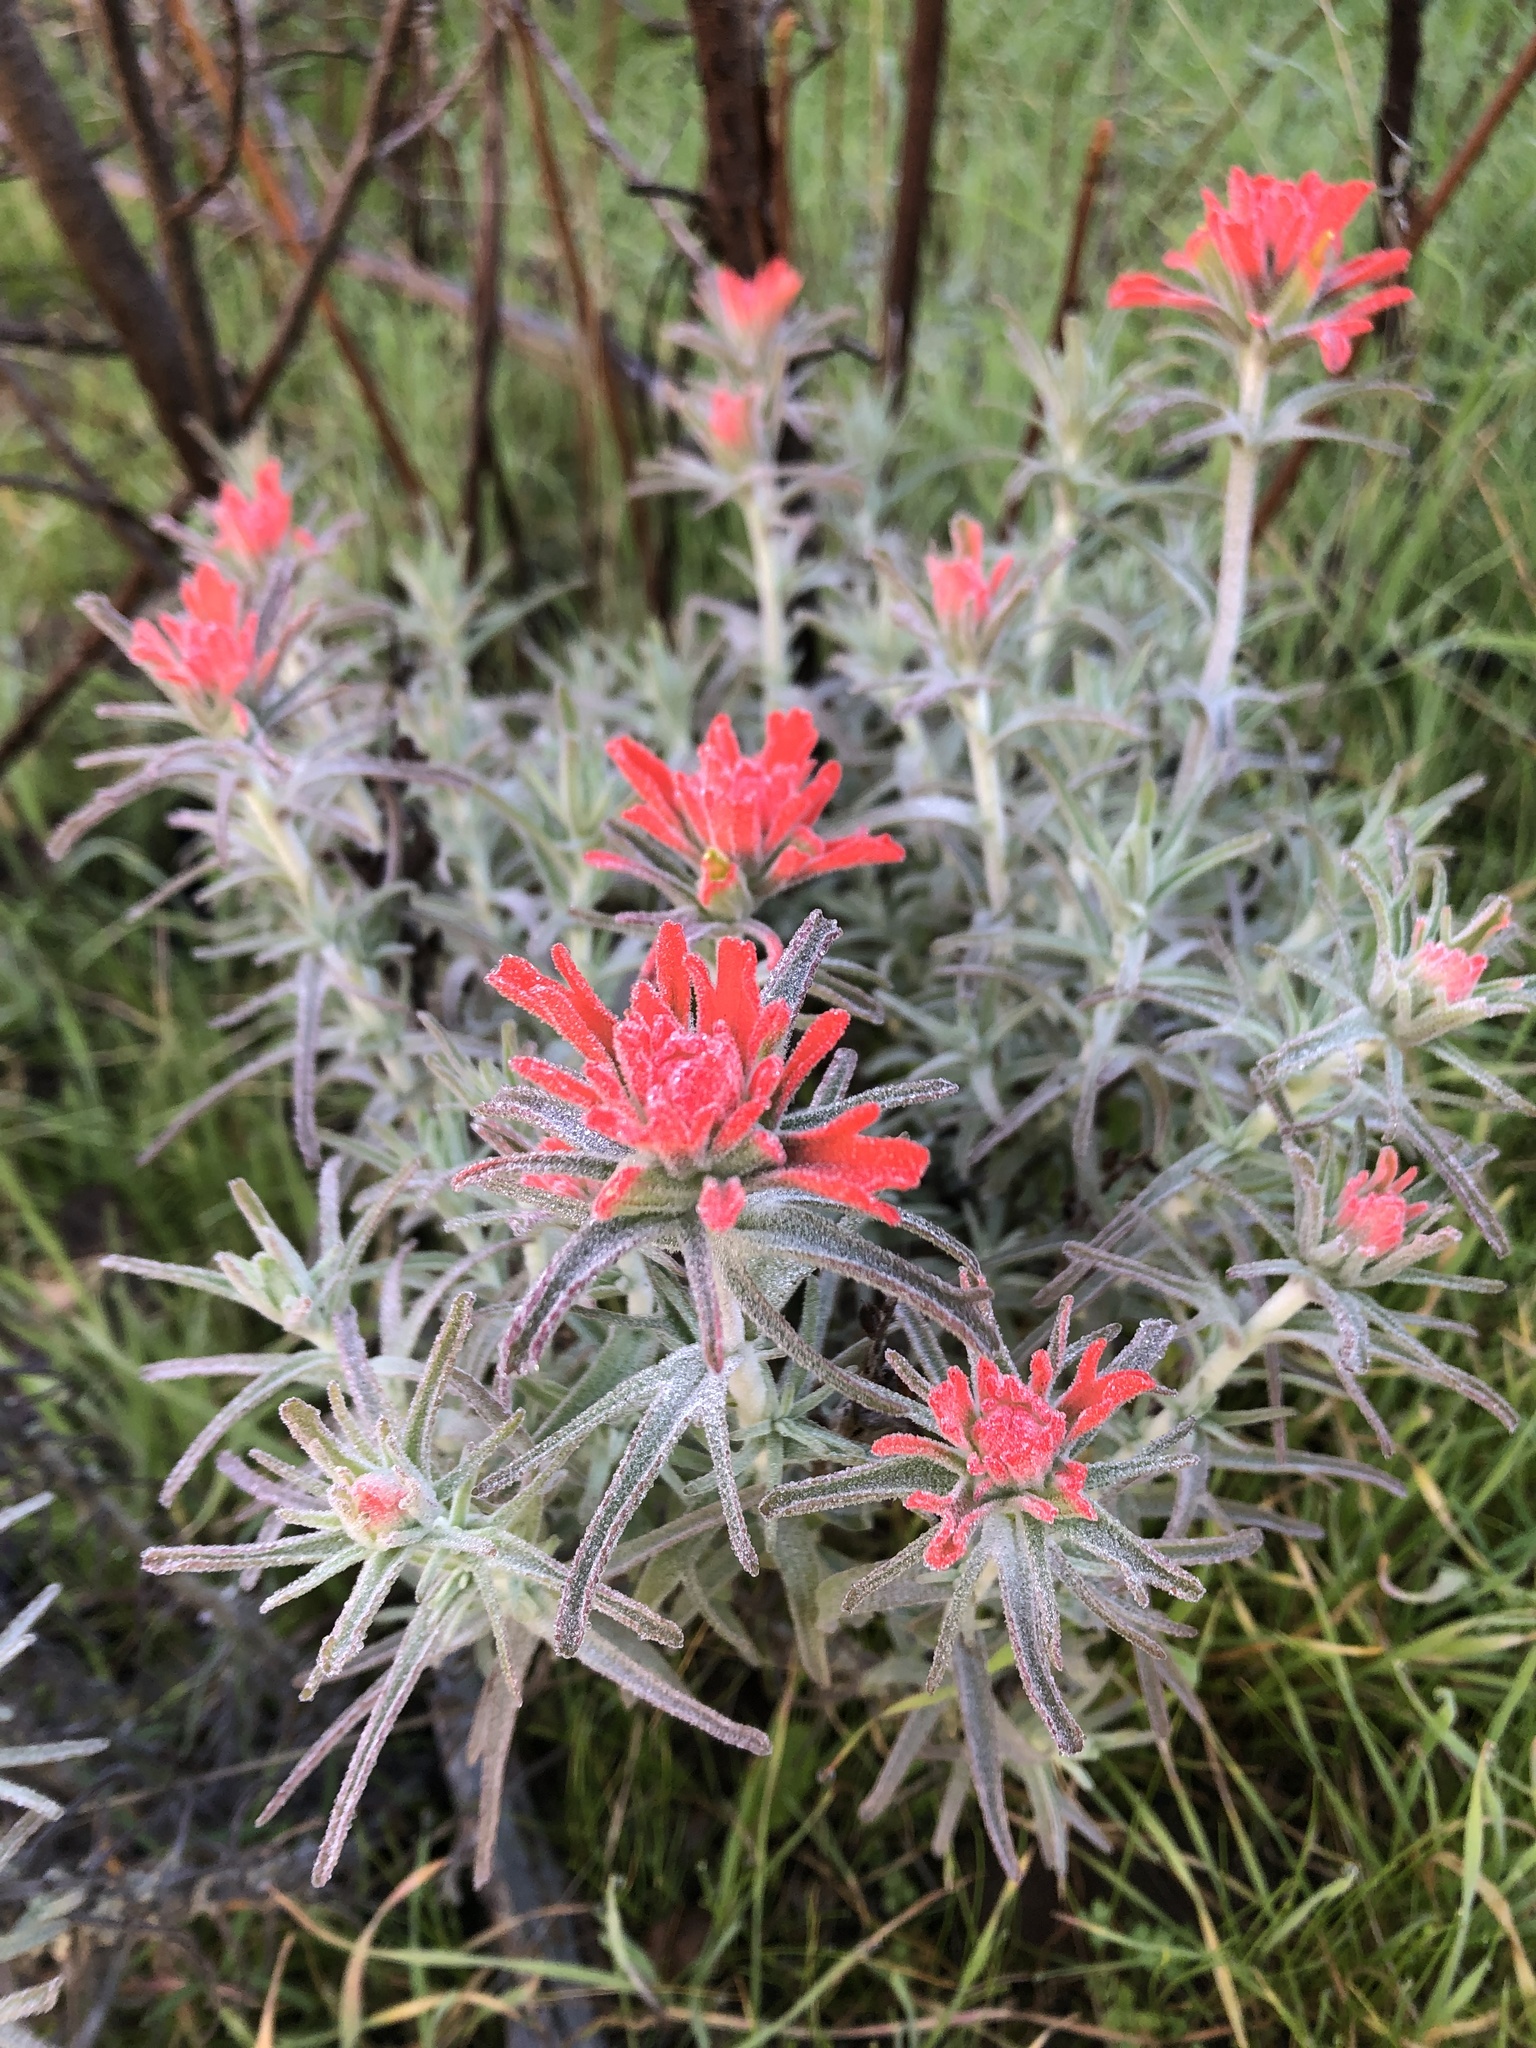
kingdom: Plantae
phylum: Tracheophyta
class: Magnoliopsida
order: Lamiales
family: Orobanchaceae
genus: Castilleja
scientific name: Castilleja foliolosa
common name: Woolly indian paintbrush
